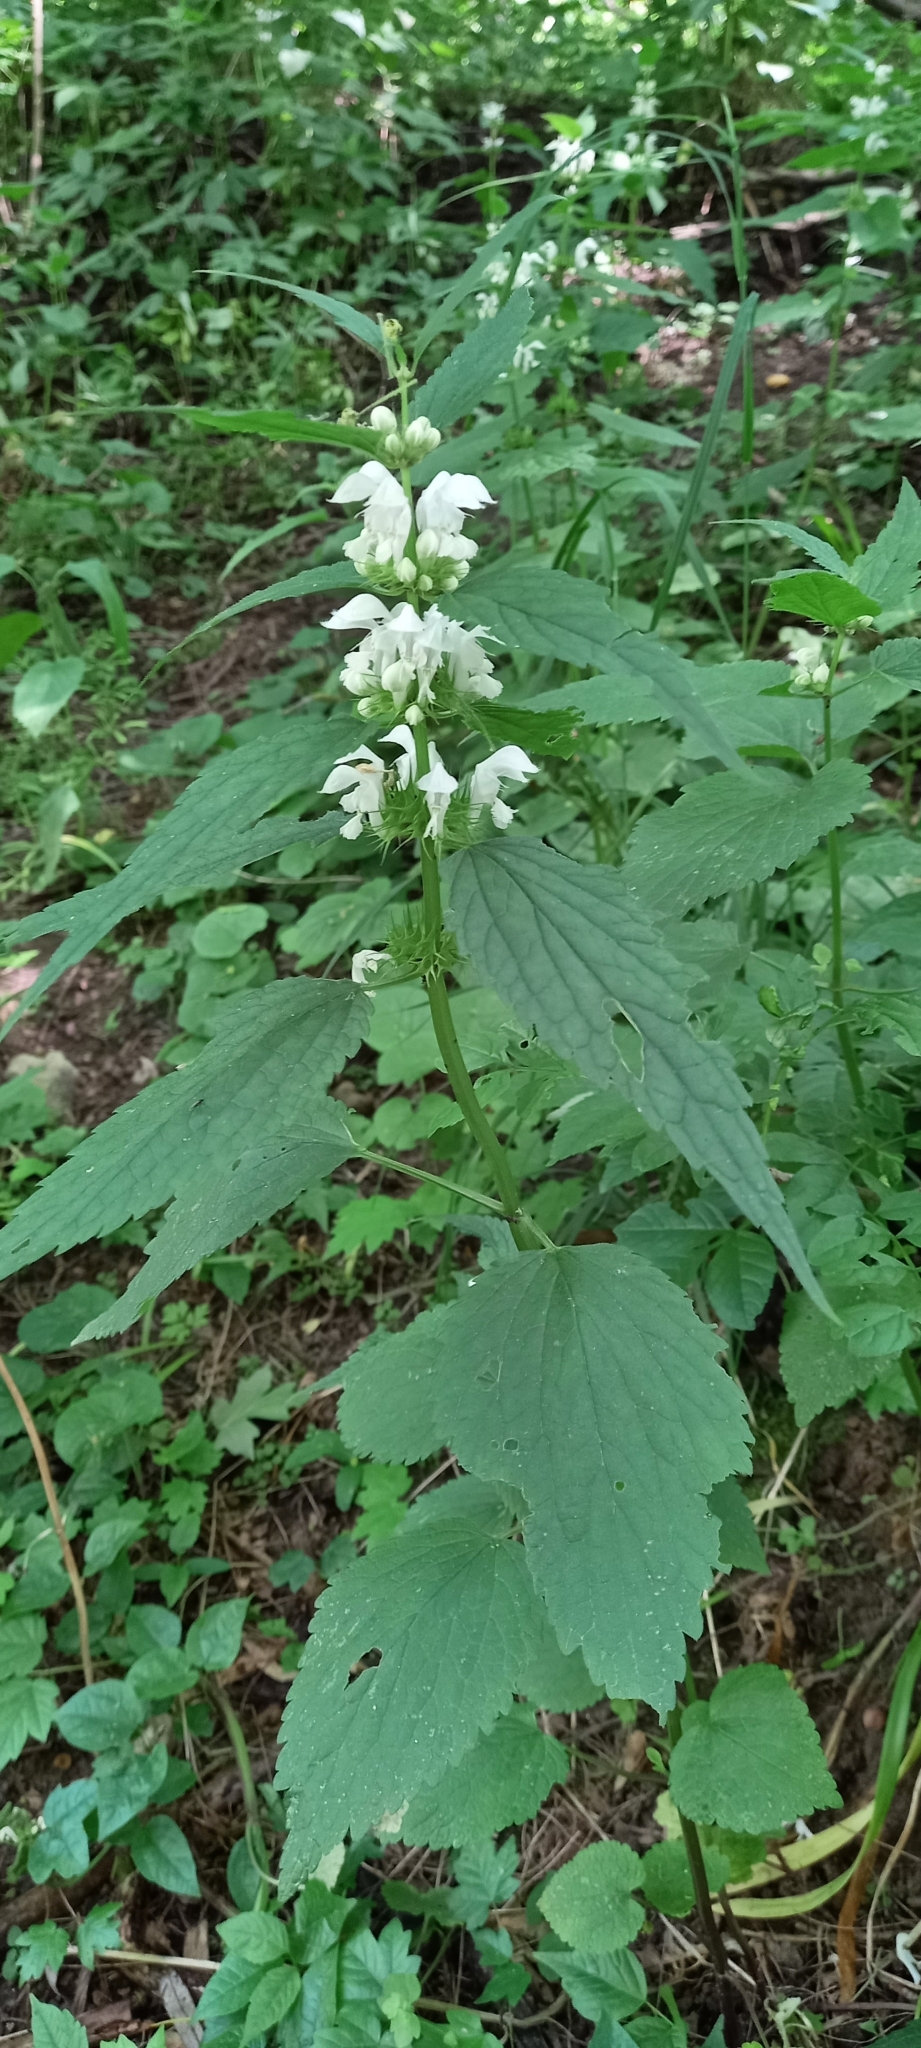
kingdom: Plantae
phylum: Tracheophyta
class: Magnoliopsida
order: Lamiales
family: Lamiaceae
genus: Lamium
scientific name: Lamium album
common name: White dead-nettle
